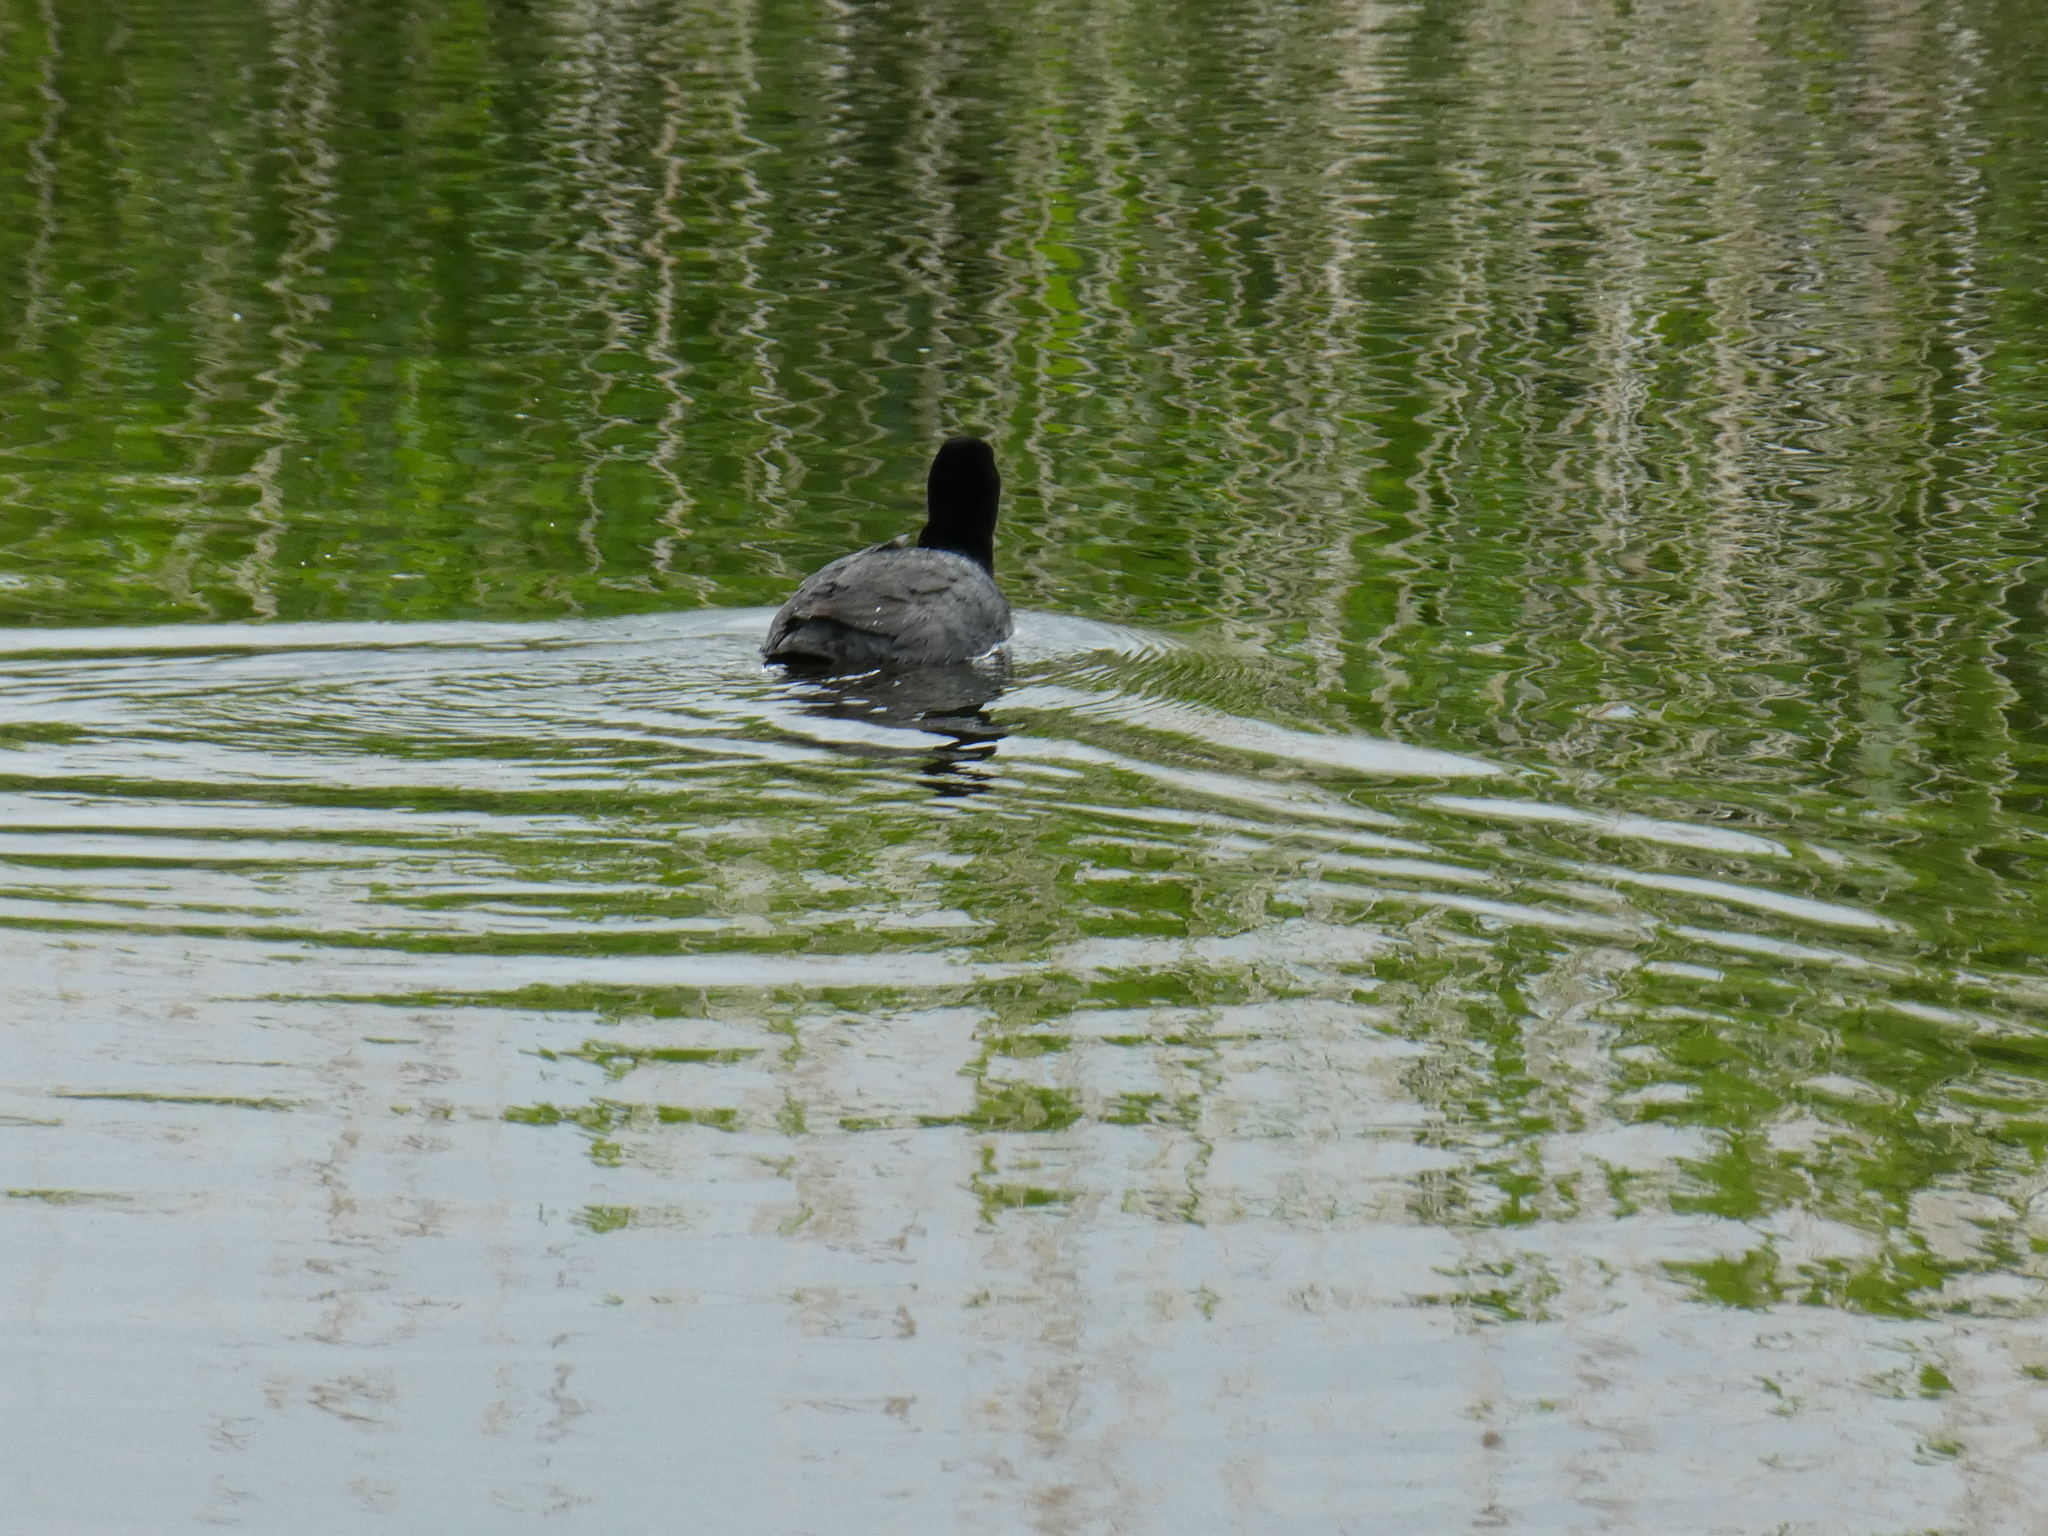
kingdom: Animalia
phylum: Chordata
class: Aves
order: Gruiformes
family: Rallidae
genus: Fulica
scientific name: Fulica atra
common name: Eurasian coot
